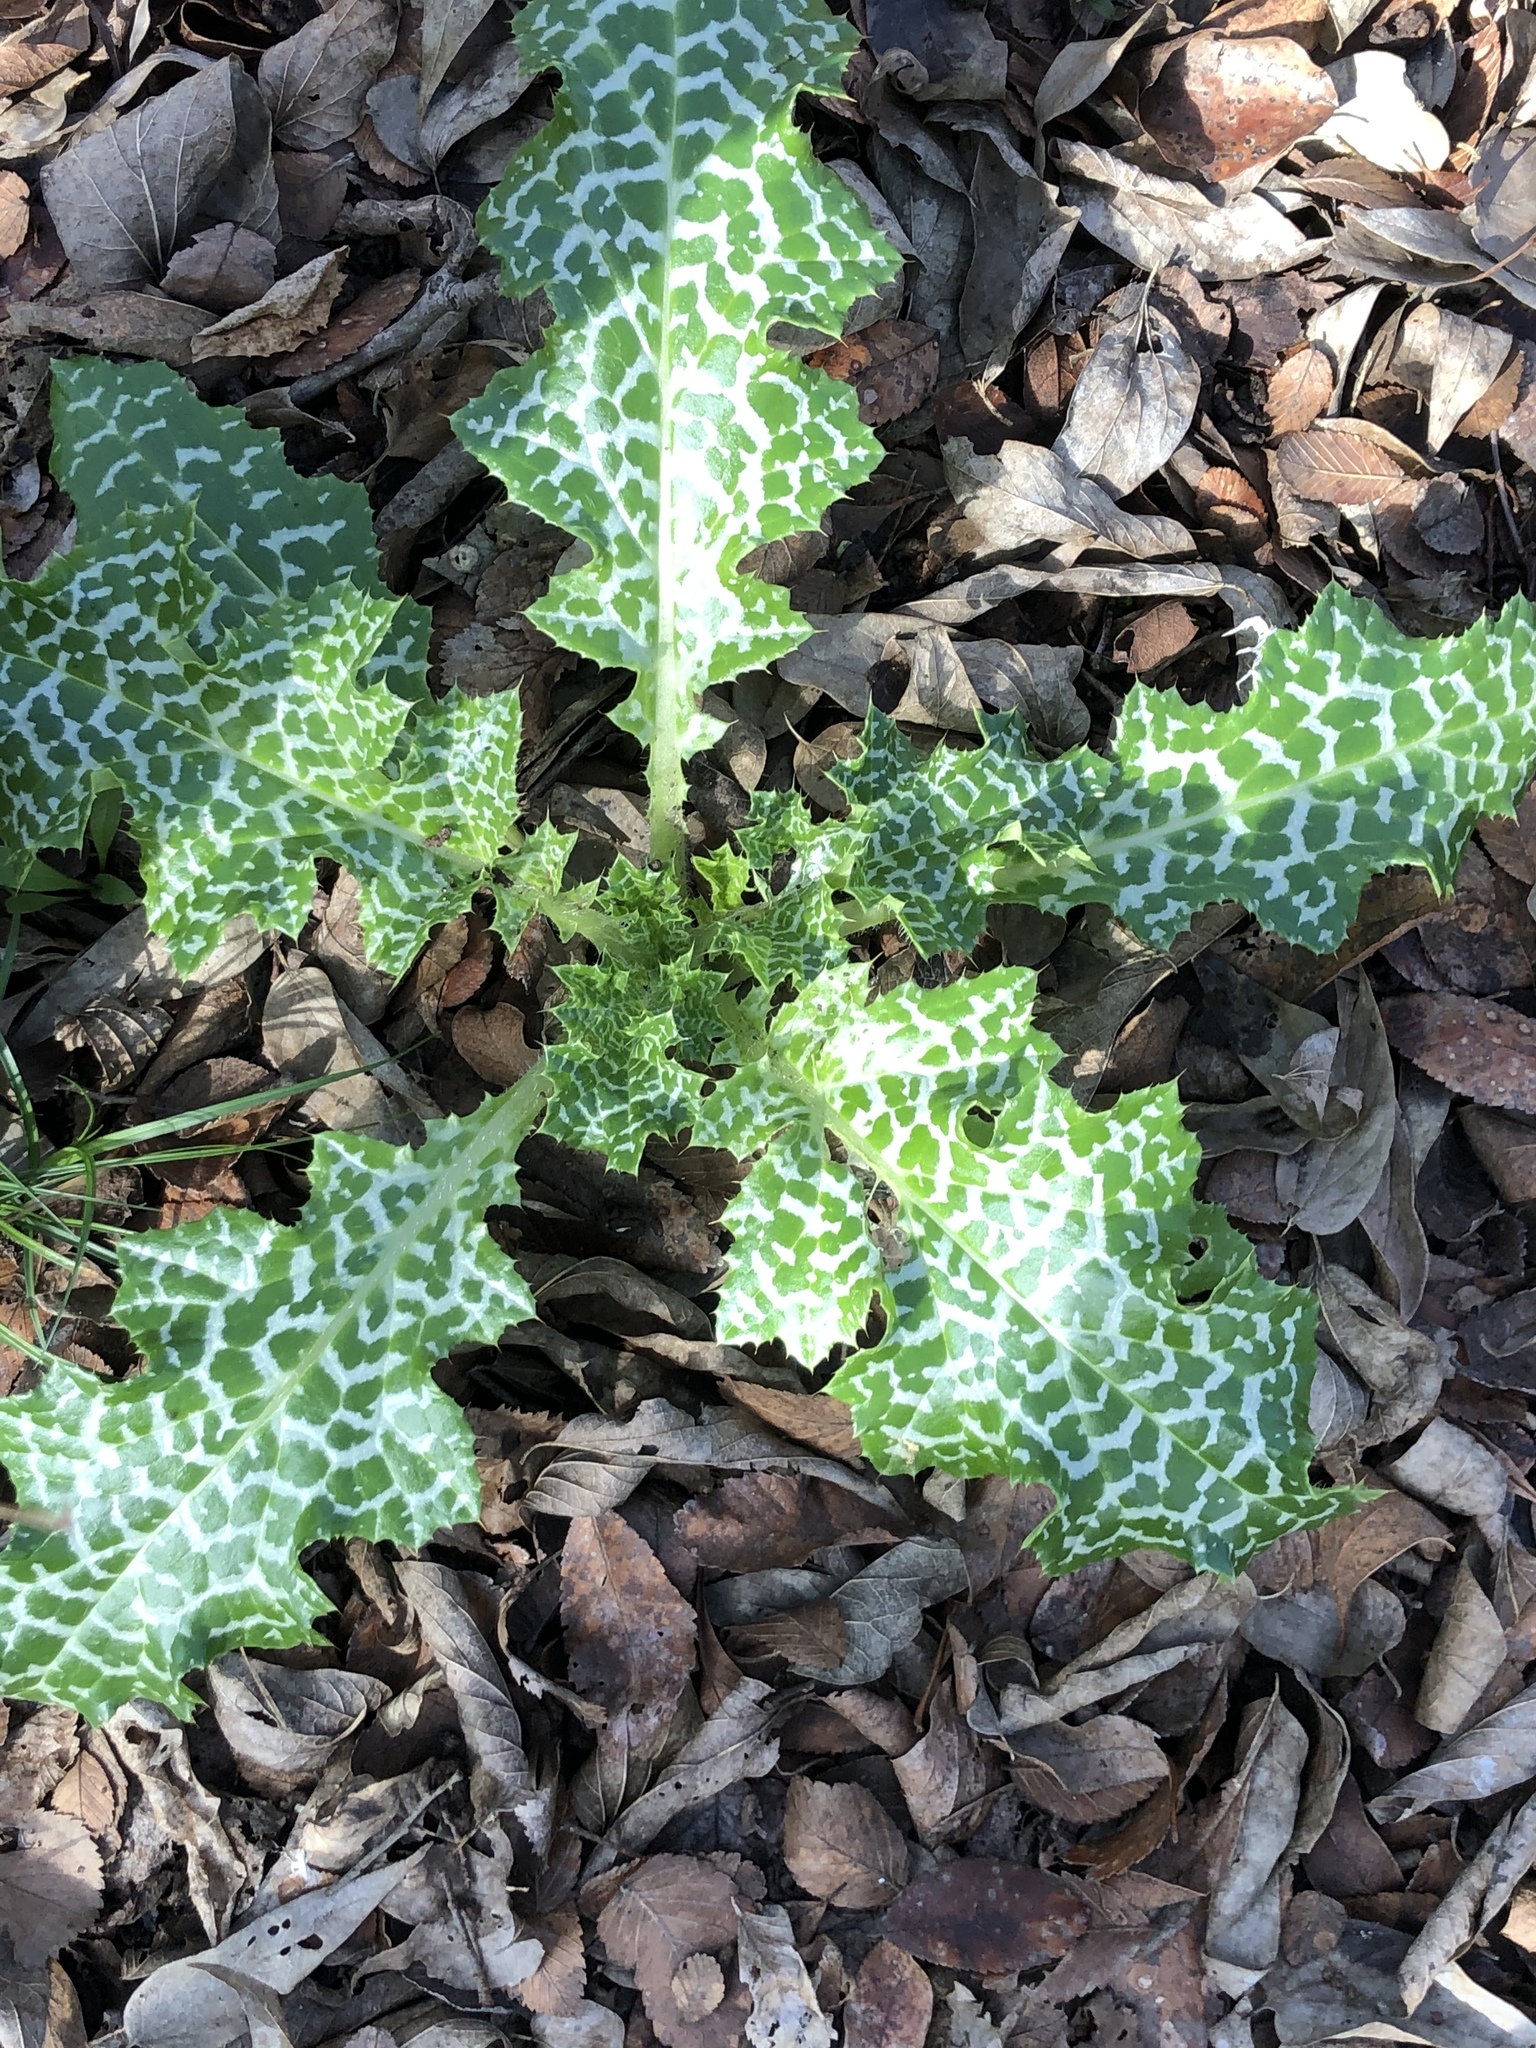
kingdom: Plantae
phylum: Tracheophyta
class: Magnoliopsida
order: Asterales
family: Asteraceae
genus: Silybum
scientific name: Silybum marianum
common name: Milk thistle
